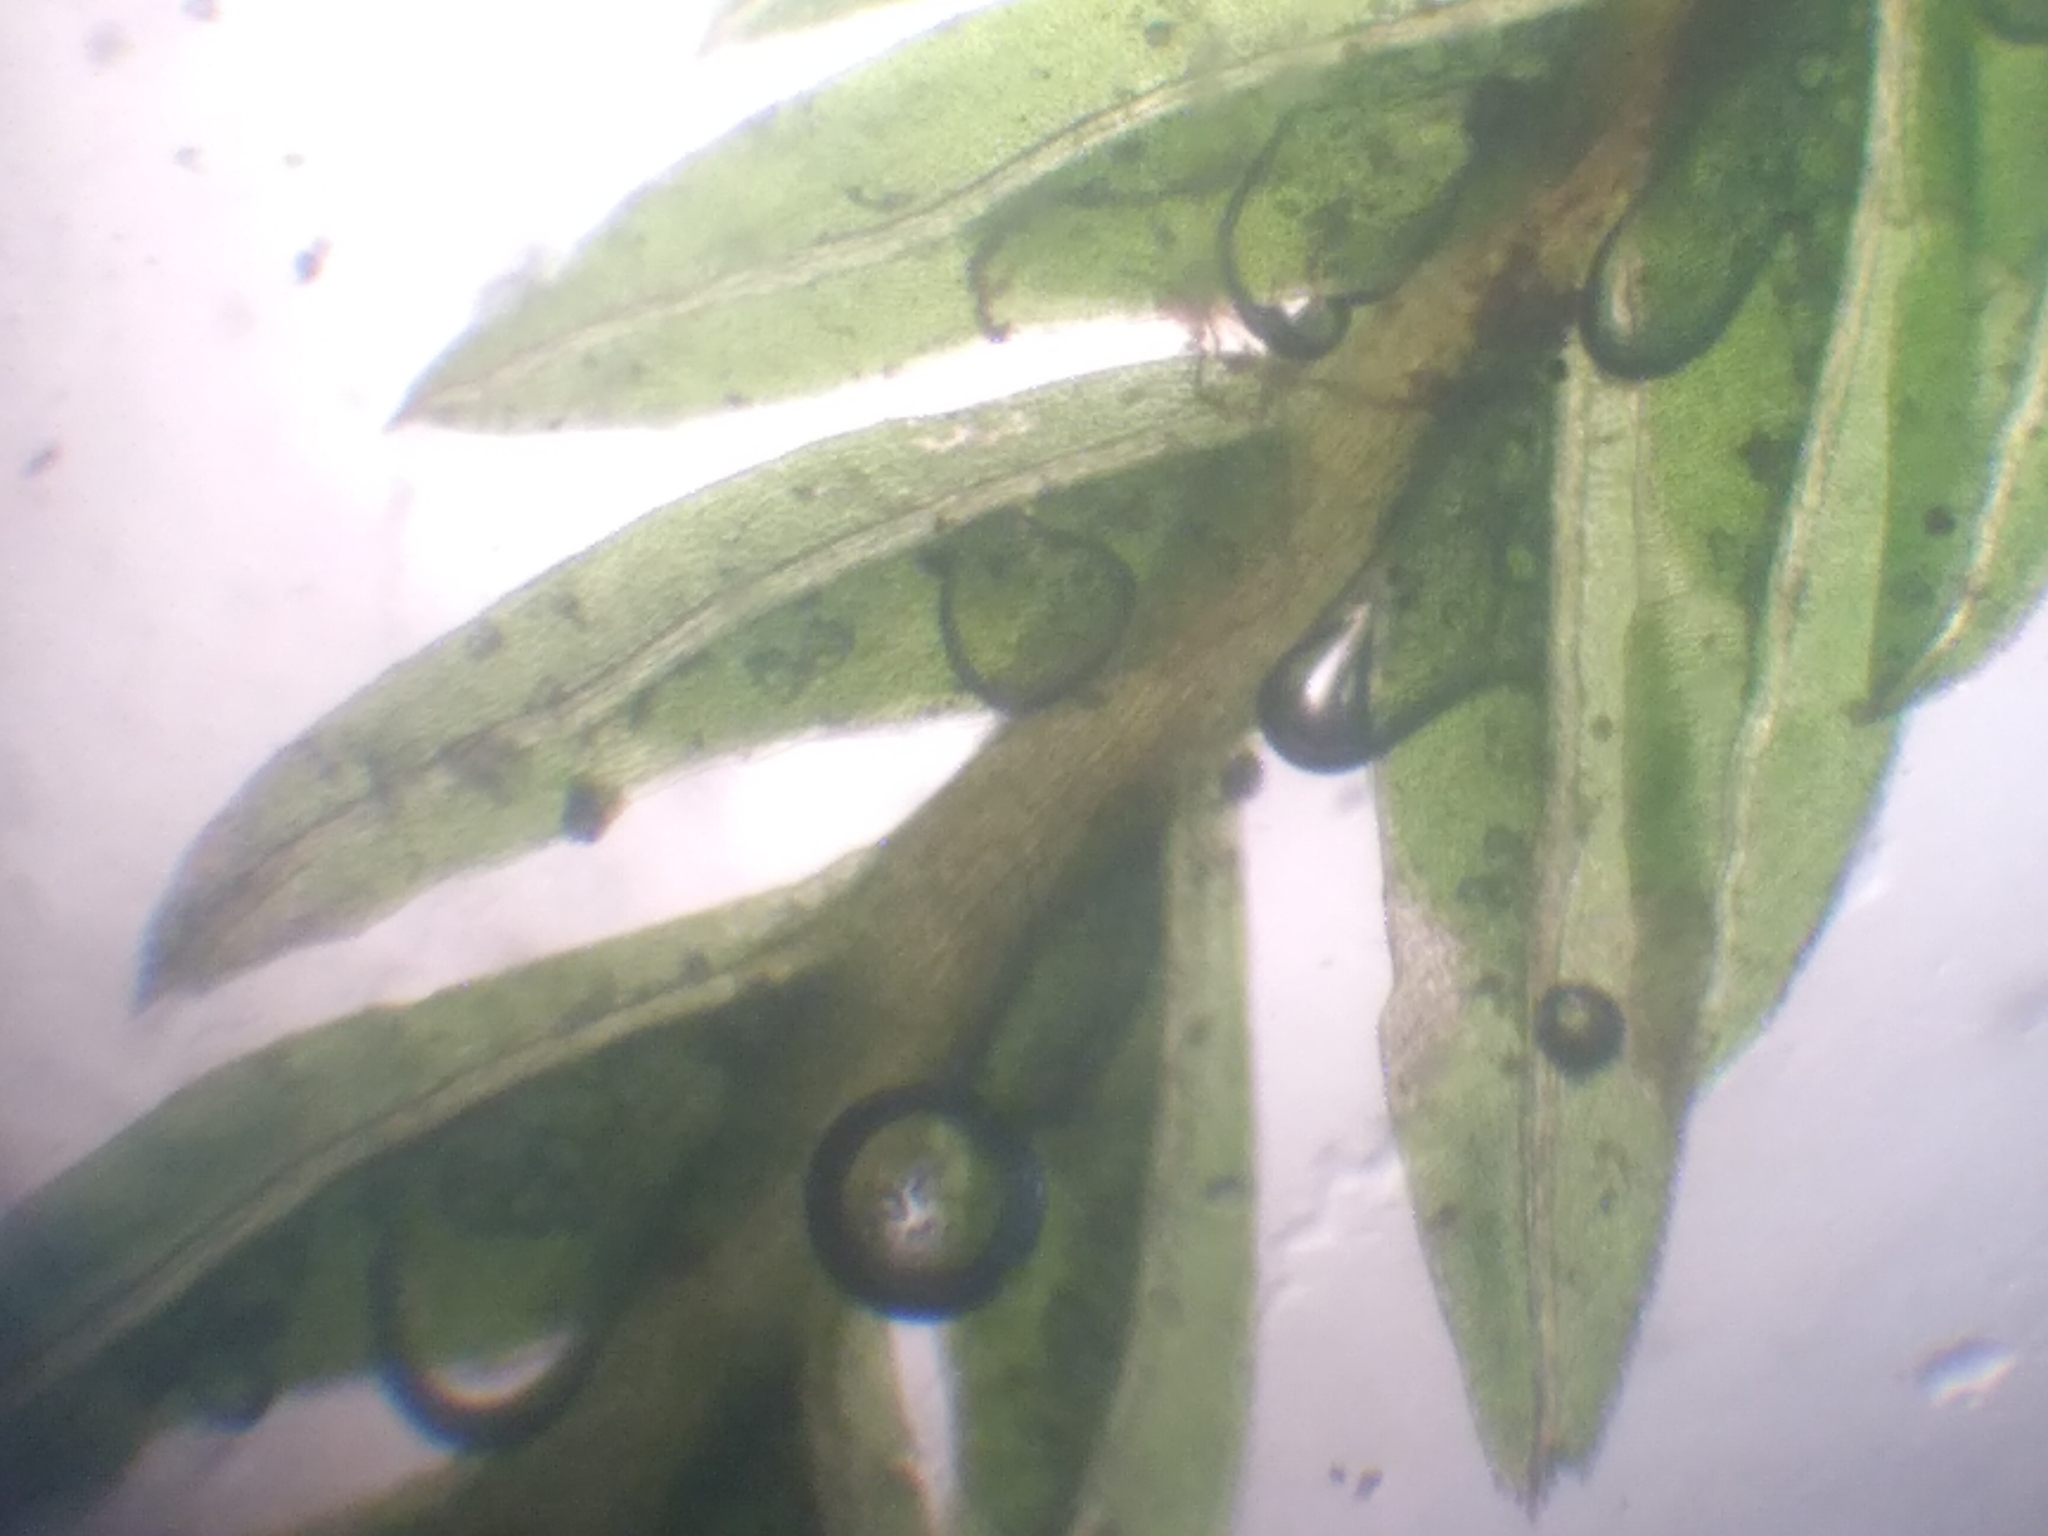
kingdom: Plantae
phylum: Bryophyta
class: Bryopsida
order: Dicranales
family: Fissidentaceae
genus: Fissidens
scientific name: Fissidens blechnoides
